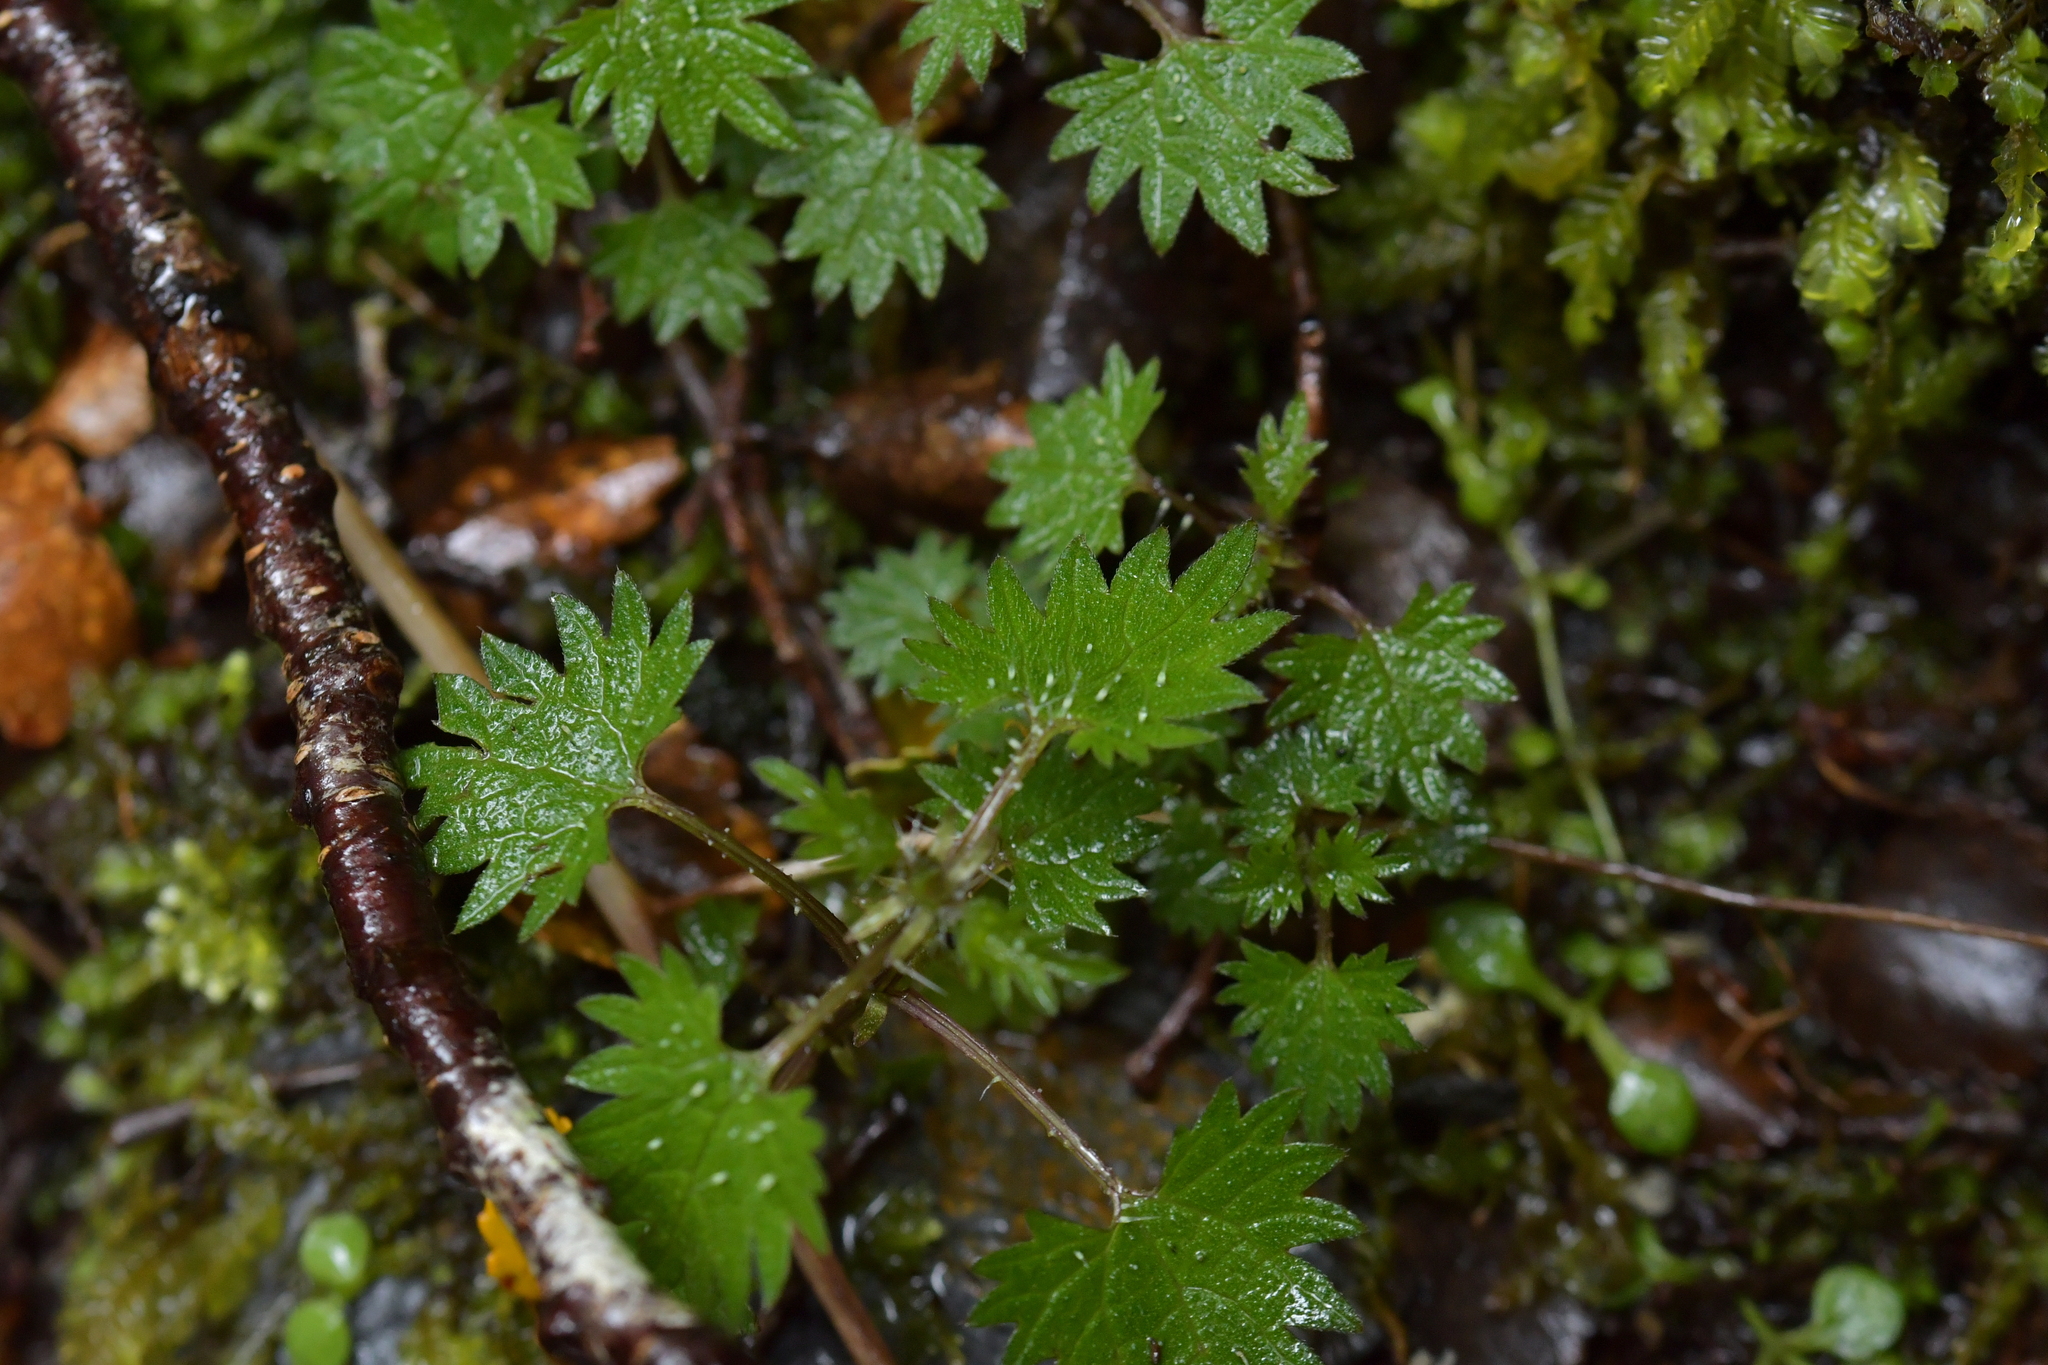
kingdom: Plantae
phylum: Tracheophyta
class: Magnoliopsida
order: Rosales
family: Urticaceae
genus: Urtica
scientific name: Urtica sykesii
